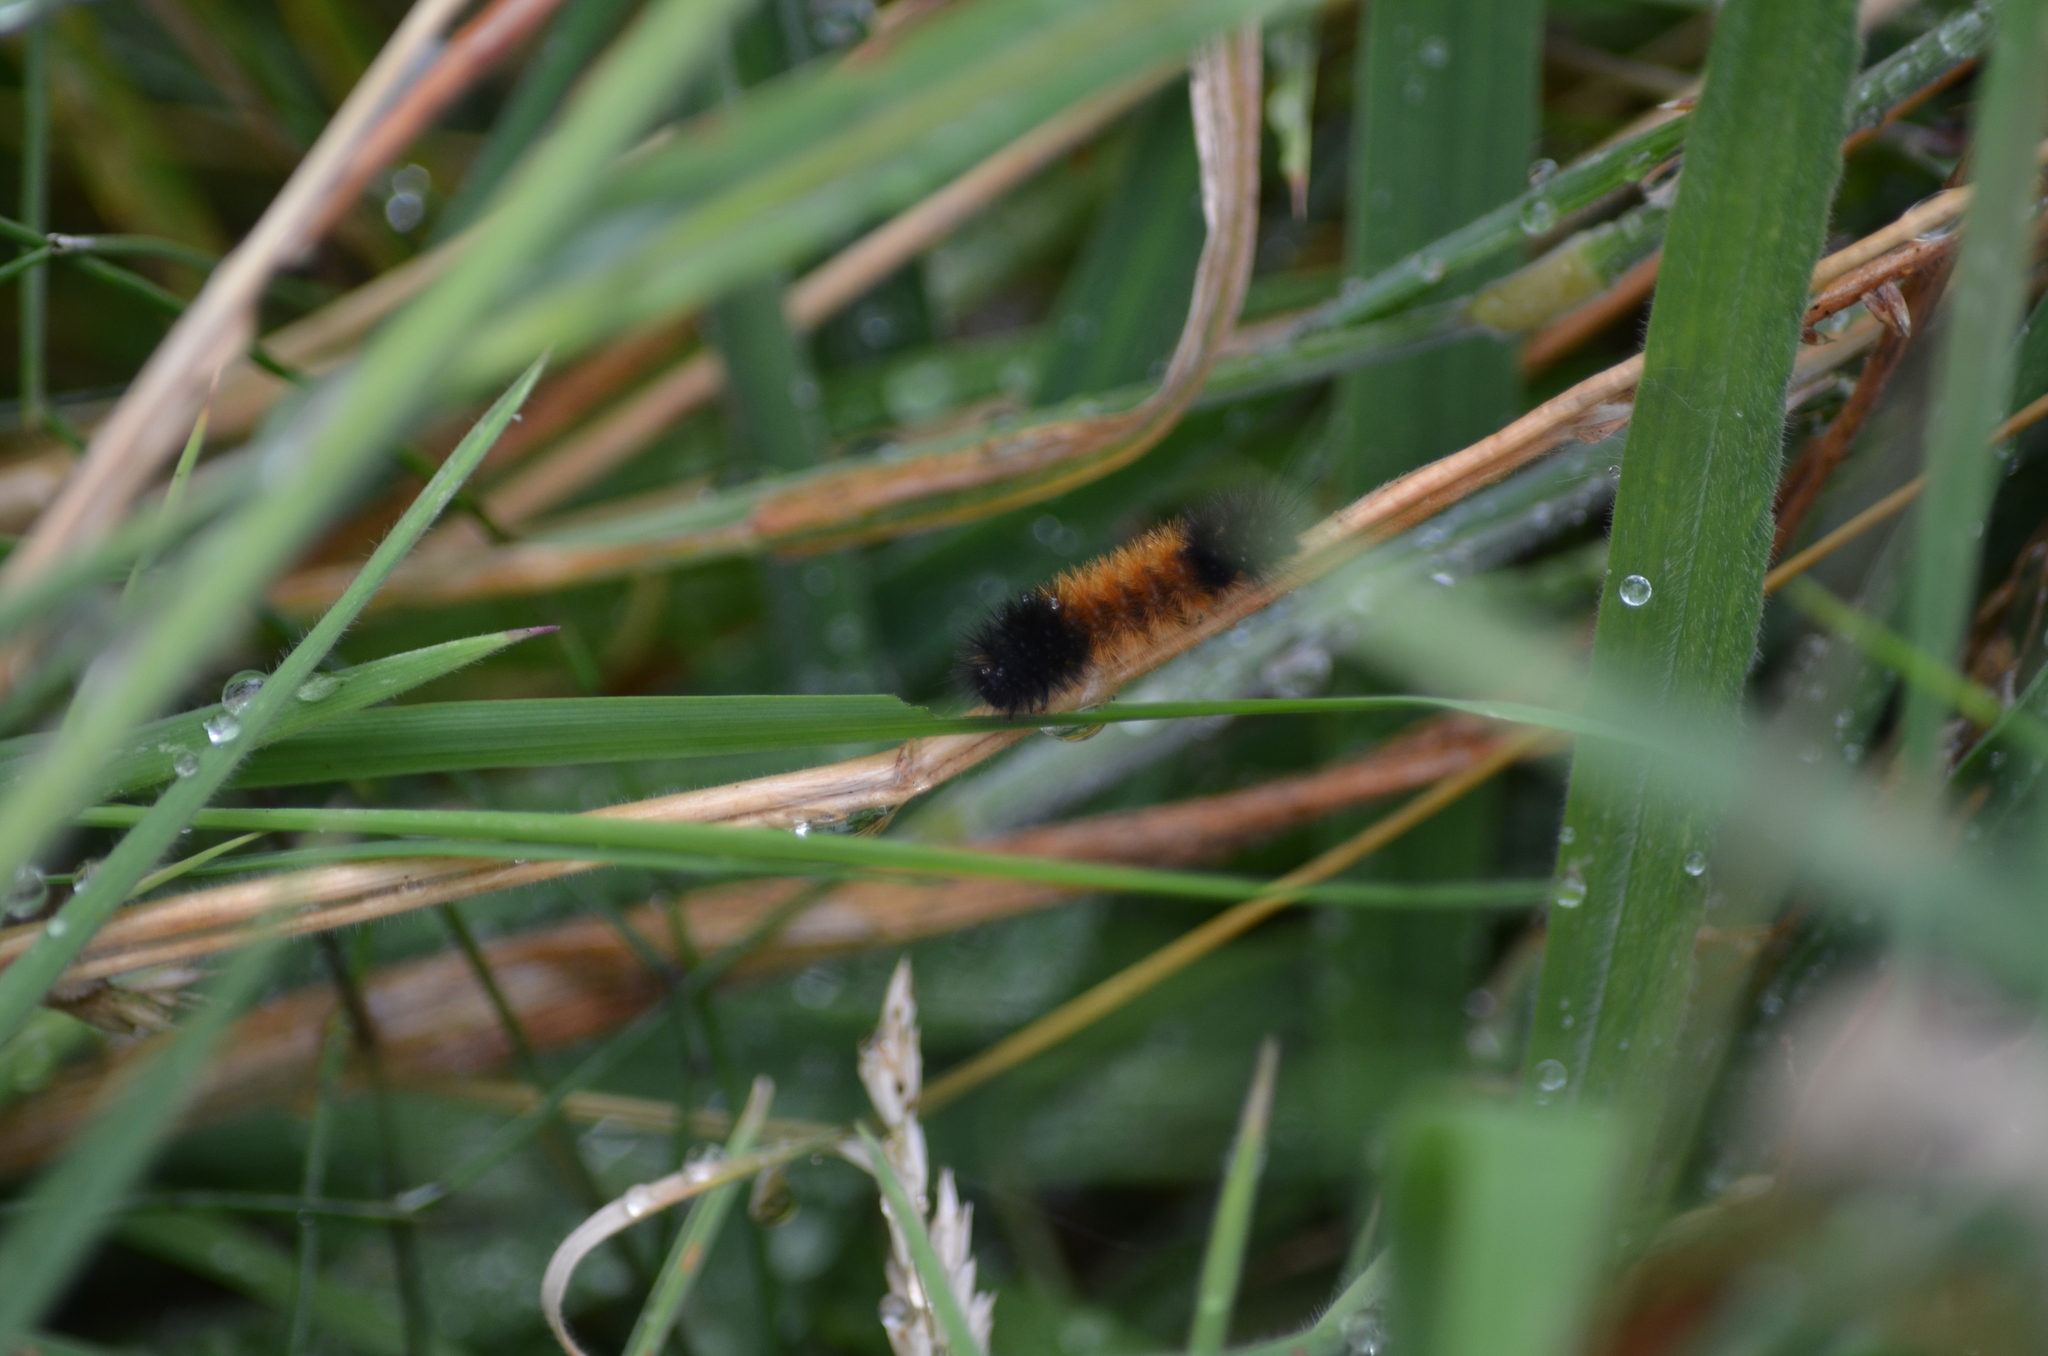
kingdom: Animalia
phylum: Arthropoda
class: Insecta
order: Lepidoptera
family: Erebidae
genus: Pyrrharctia
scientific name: Pyrrharctia isabella
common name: Isabella tiger moth
